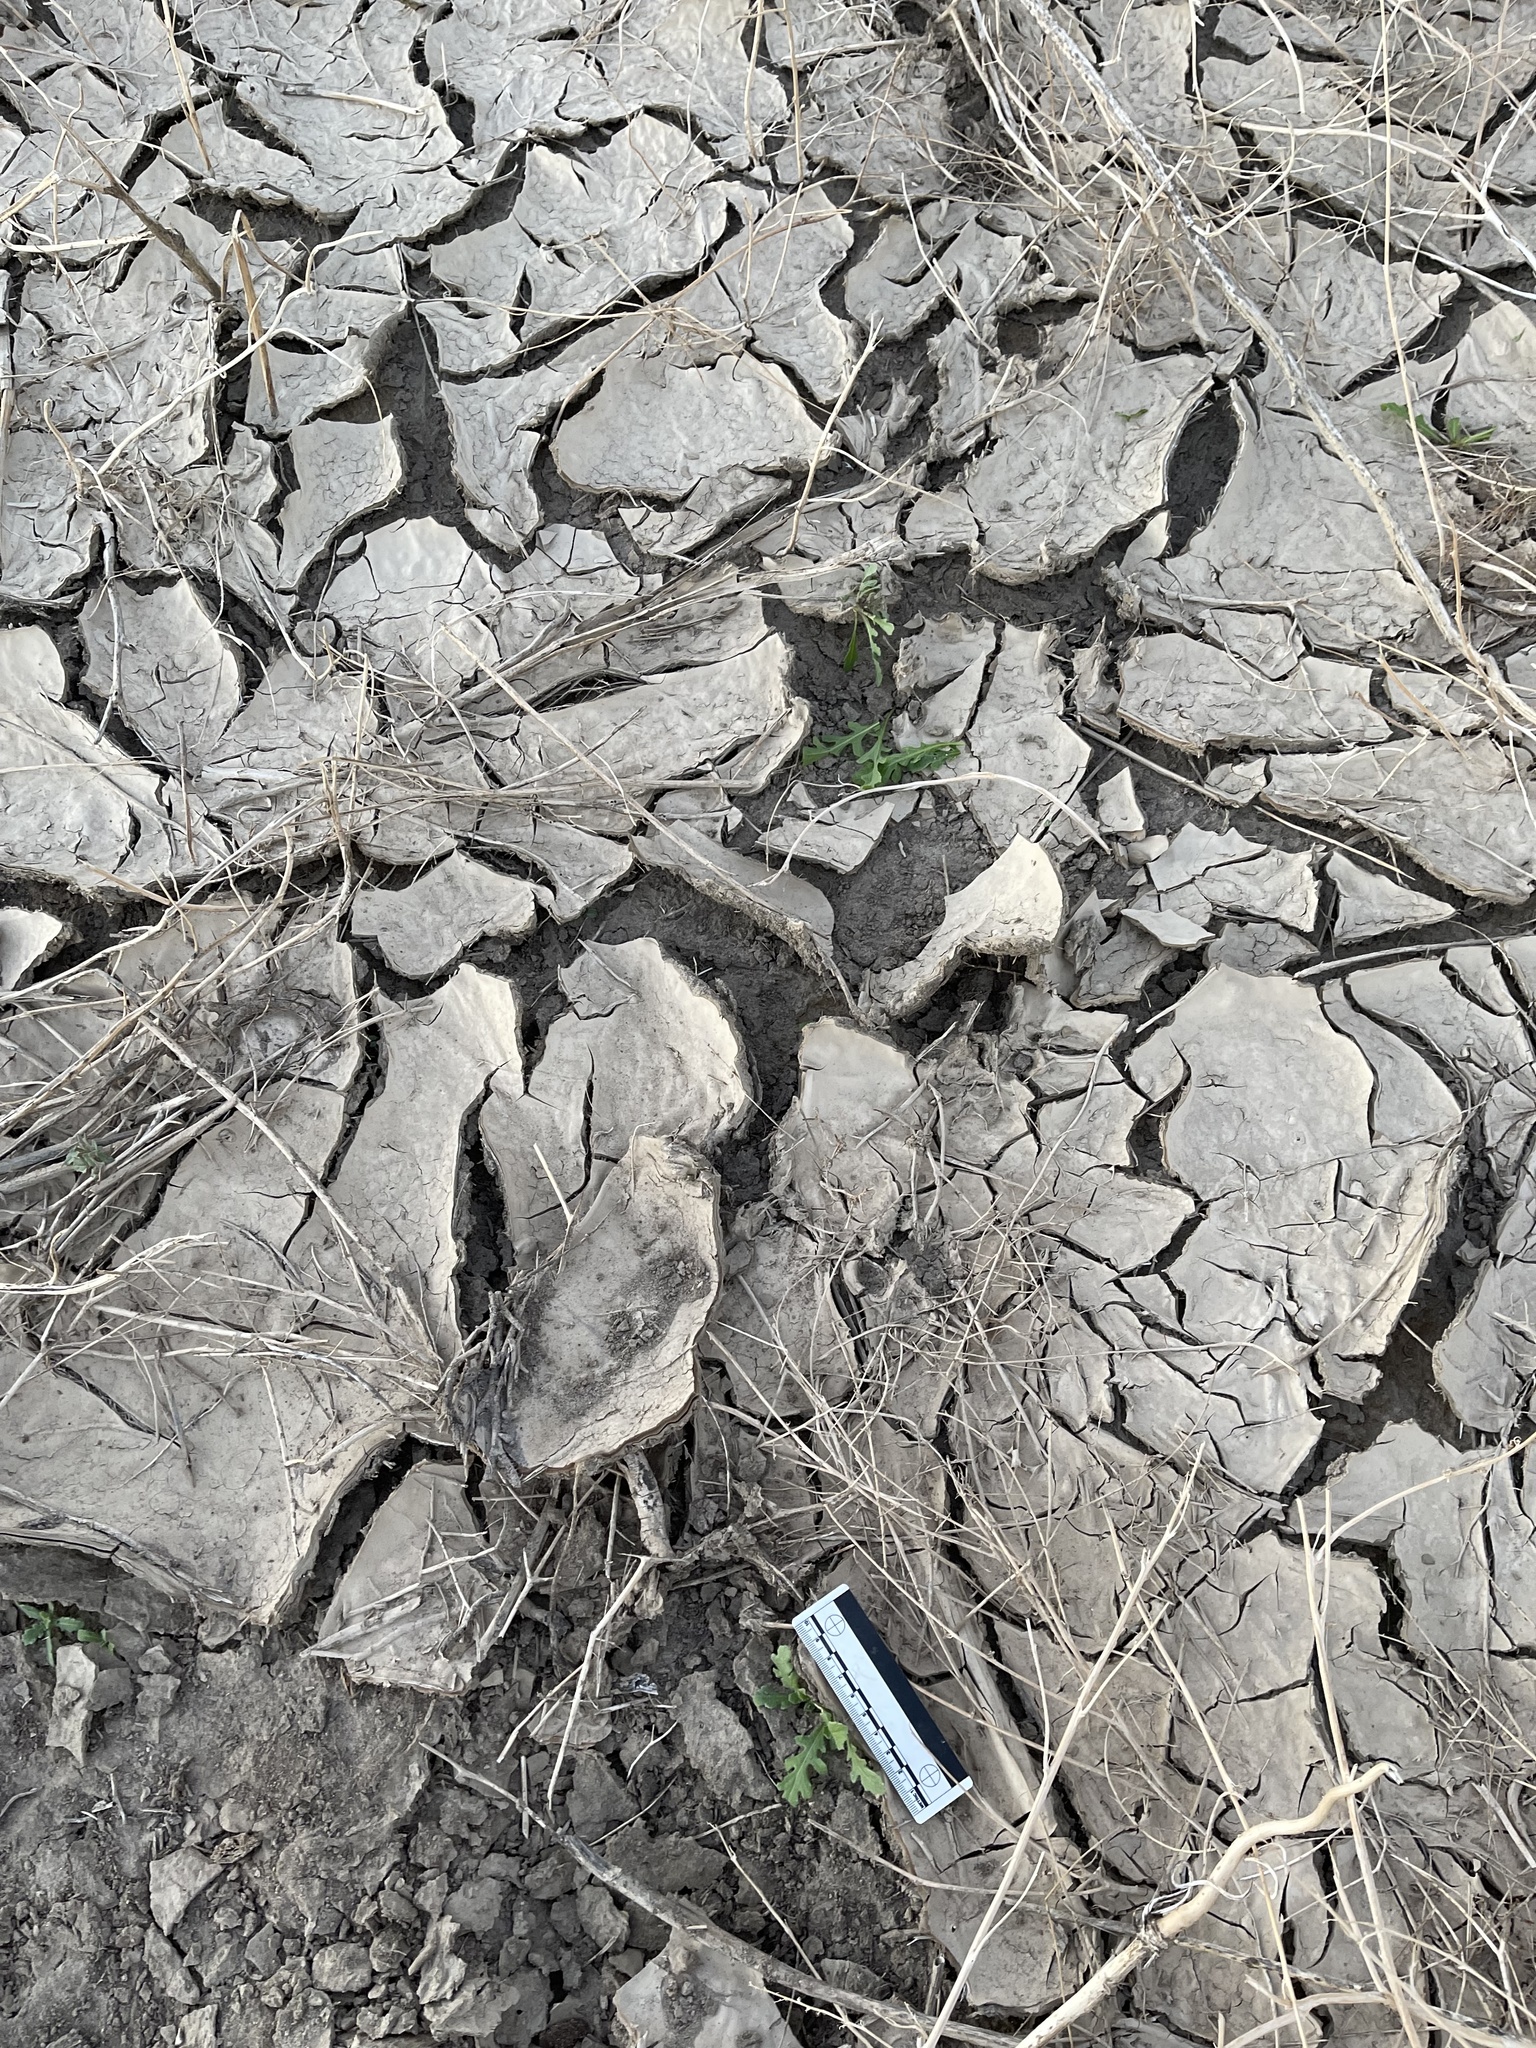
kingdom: Plantae
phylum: Tracheophyta
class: Magnoliopsida
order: Asterales
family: Asteraceae
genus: Volutaria
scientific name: Volutaria tubuliflora
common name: Desert knapweed
